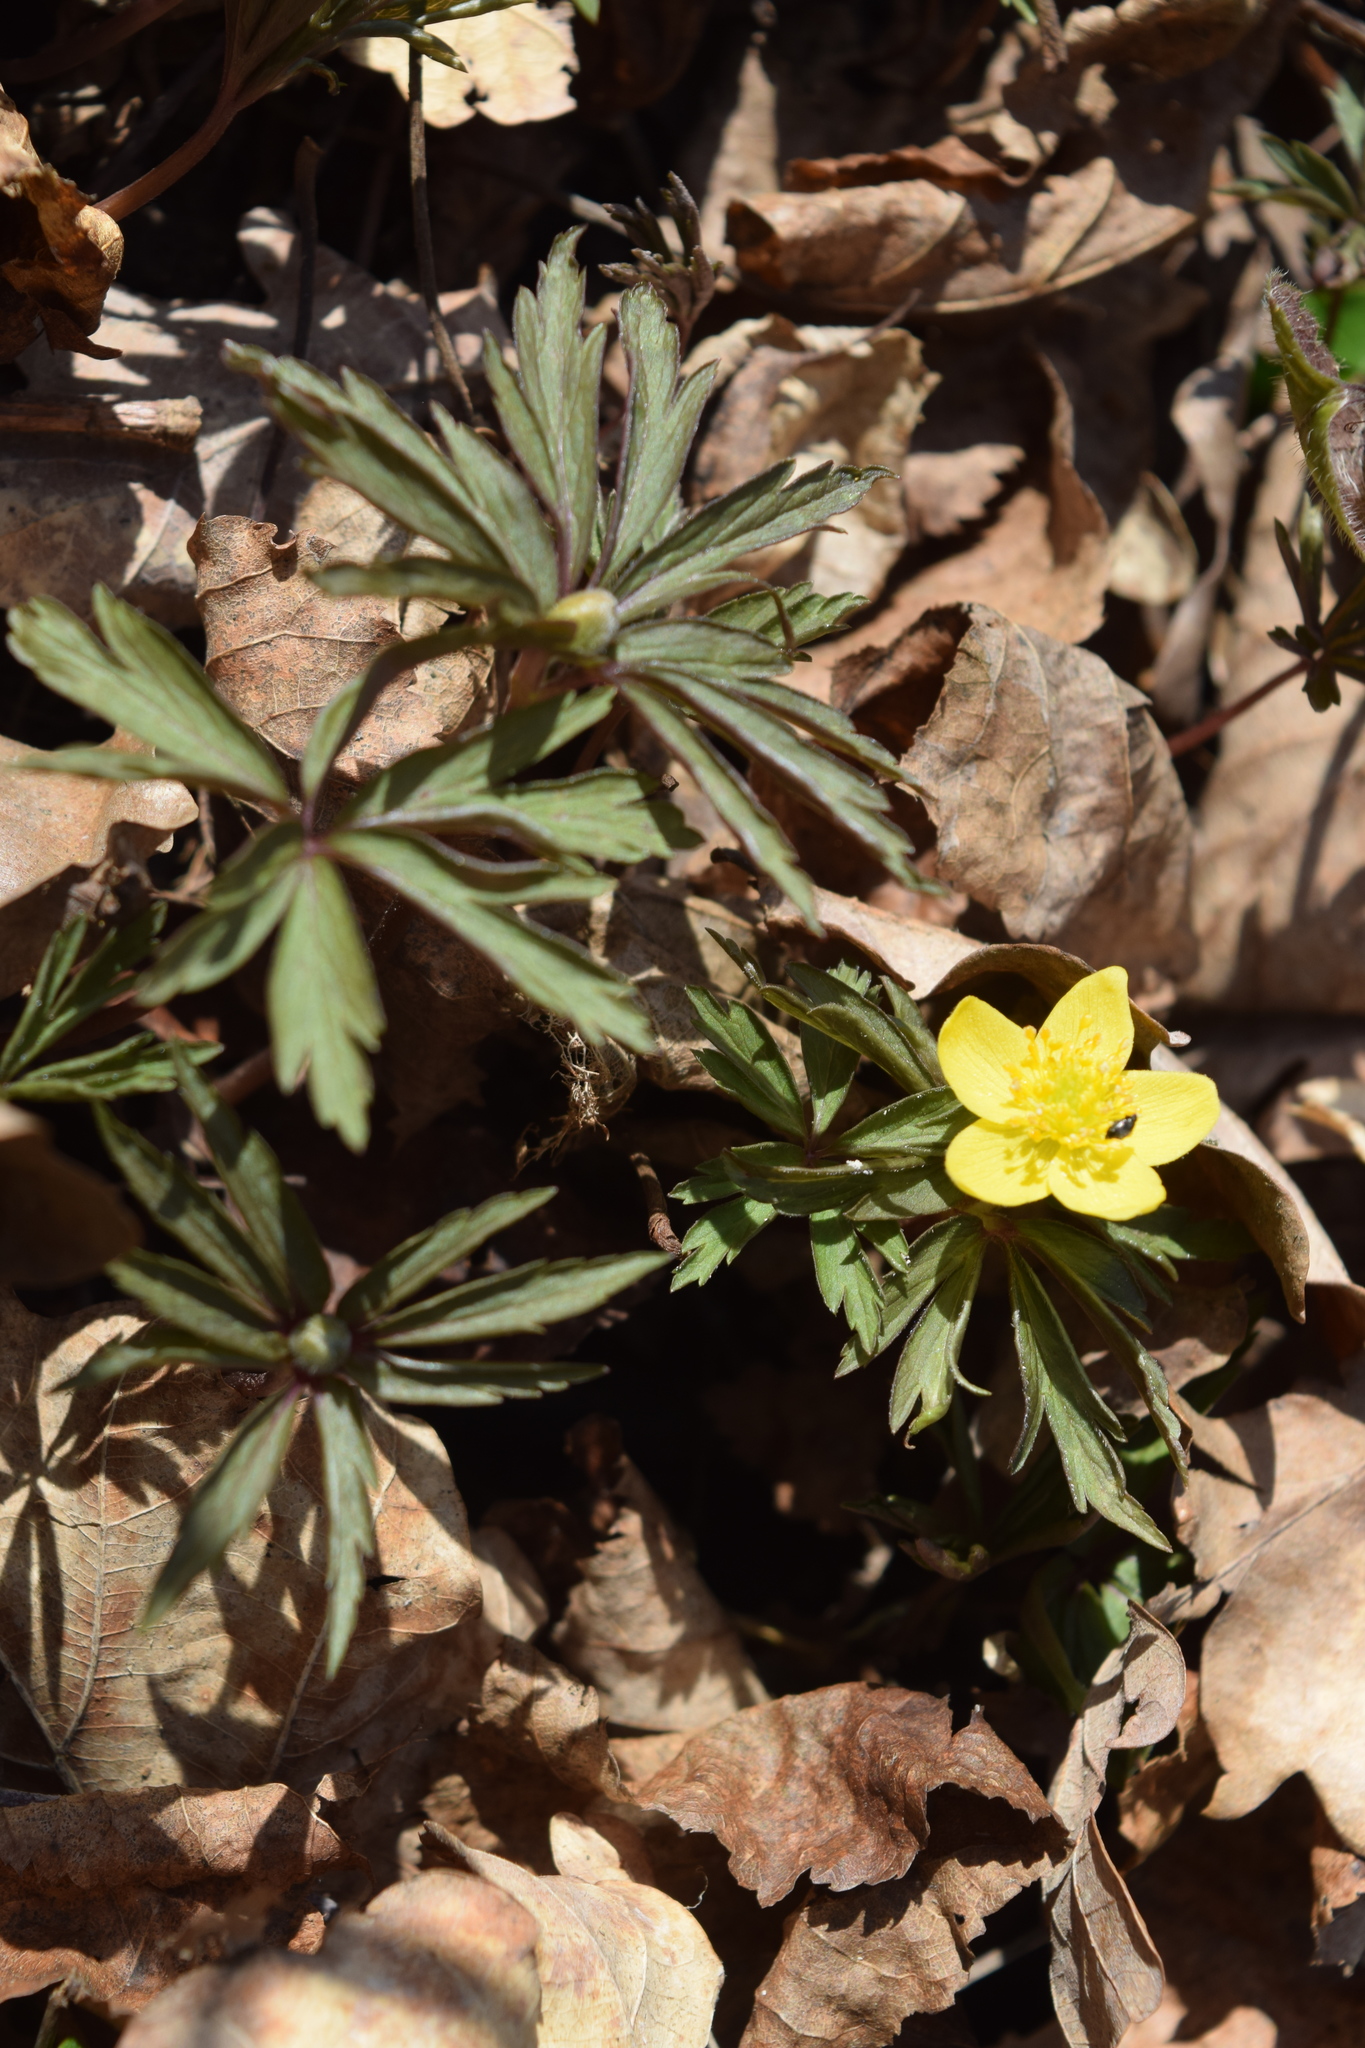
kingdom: Plantae
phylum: Tracheophyta
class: Magnoliopsida
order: Ranunculales
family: Ranunculaceae
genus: Anemone
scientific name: Anemone ranunculoides
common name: Yellow anemone
